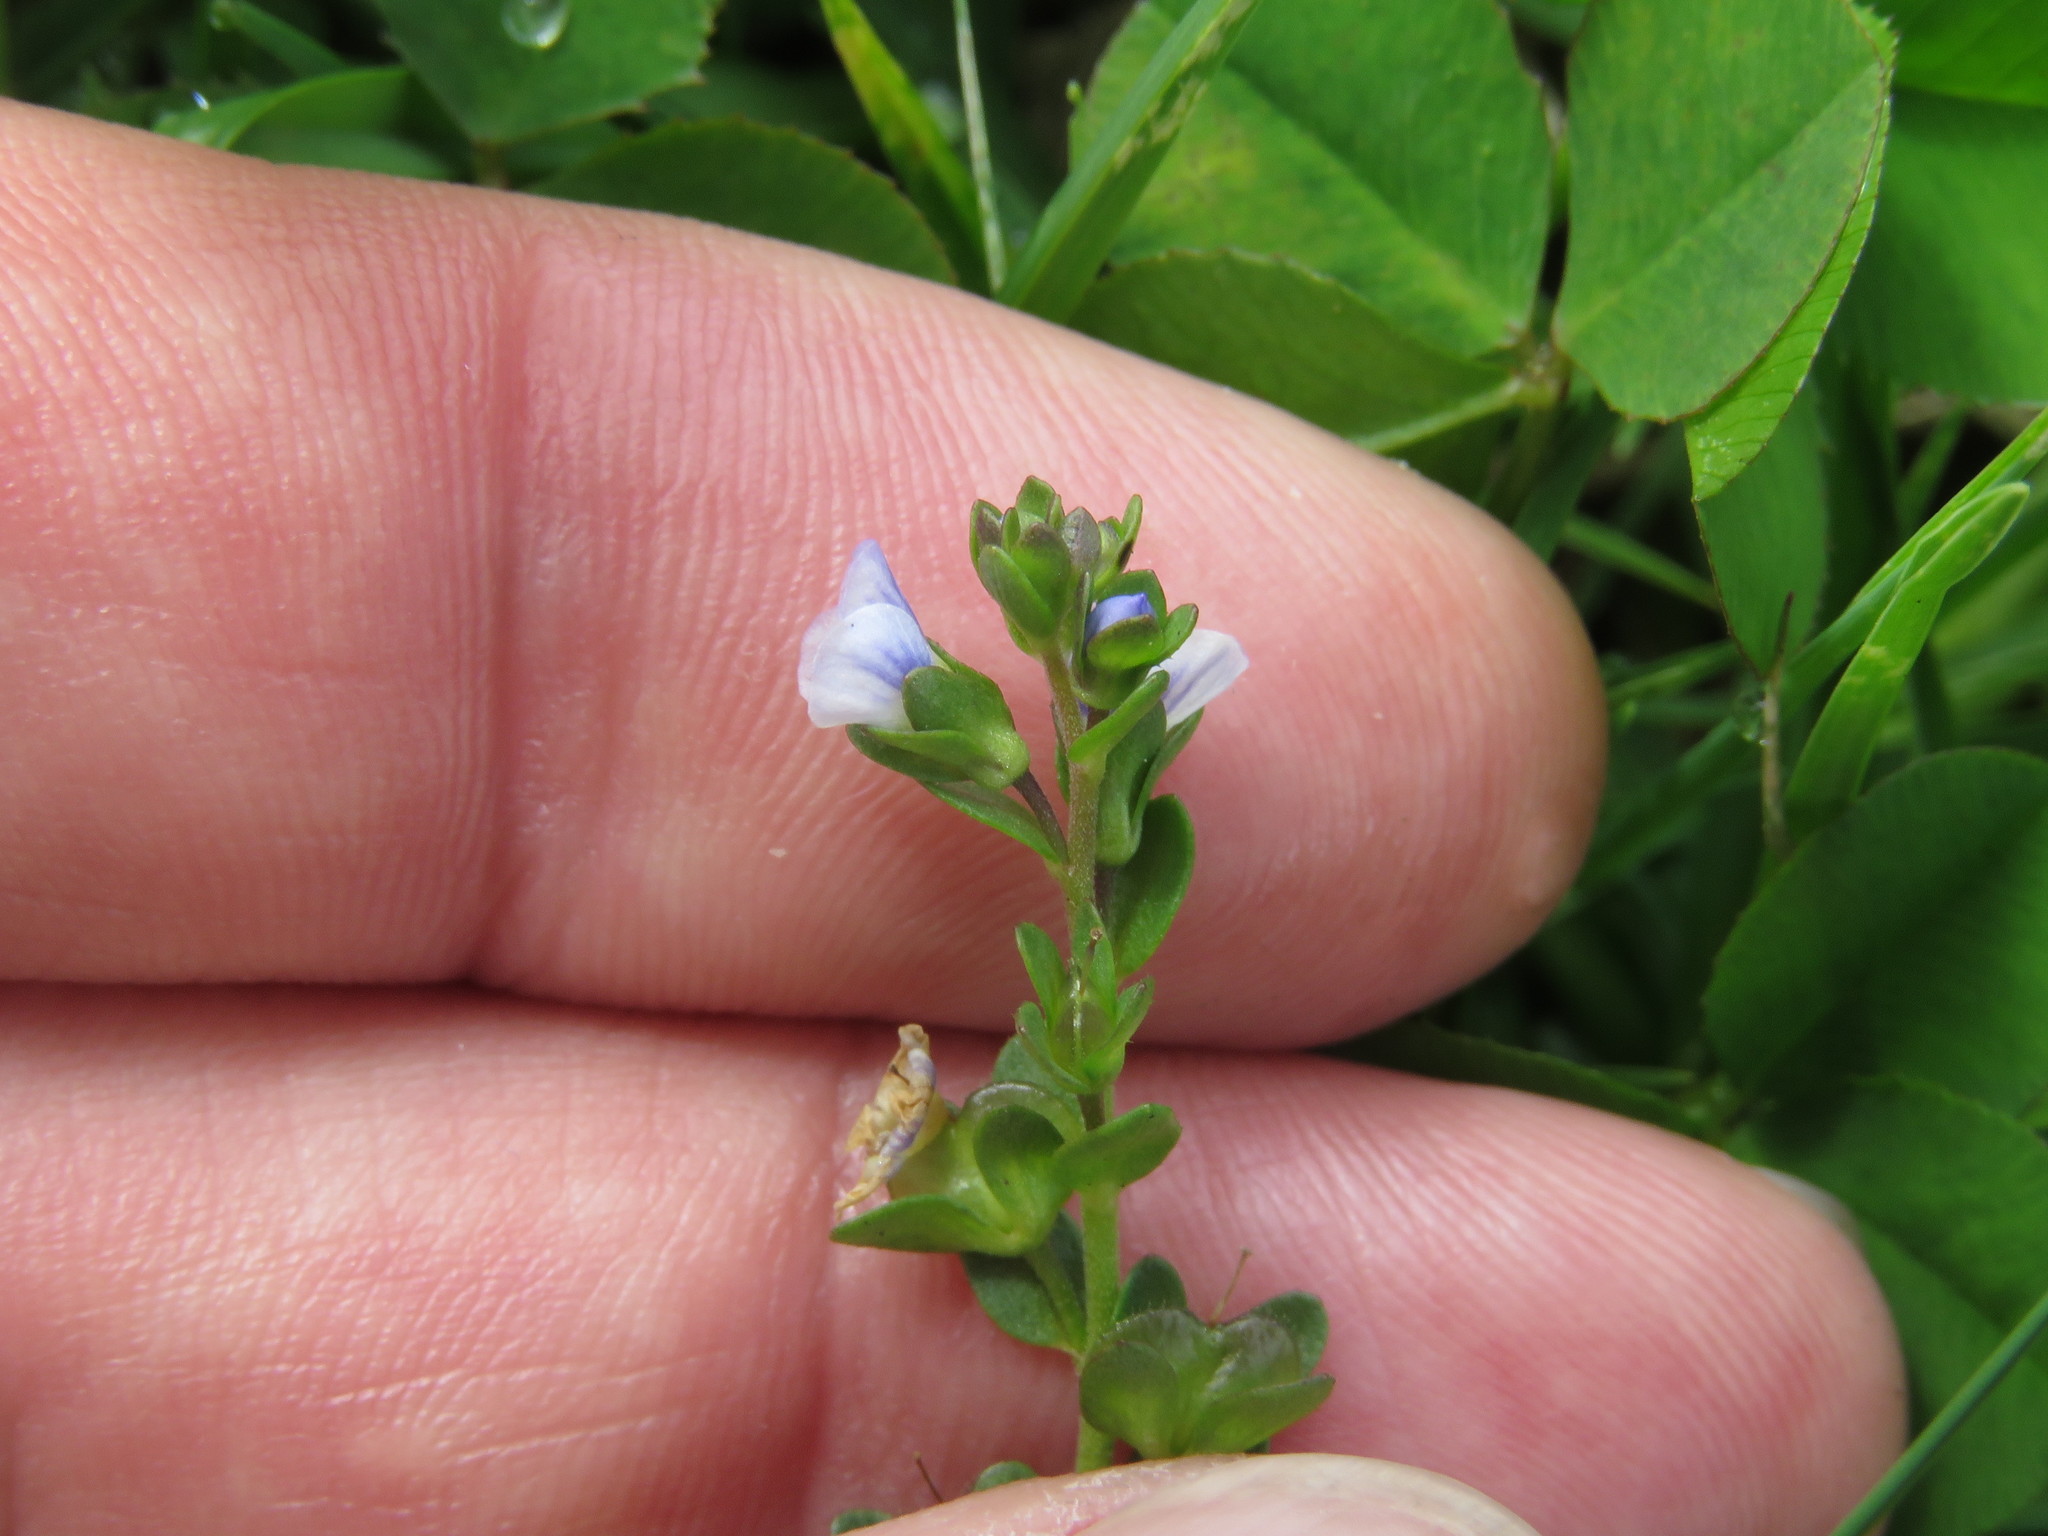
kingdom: Plantae
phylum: Tracheophyta
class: Magnoliopsida
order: Lamiales
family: Plantaginaceae
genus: Veronica
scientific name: Veronica serpyllifolia
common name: Thyme-leaved speedwell
